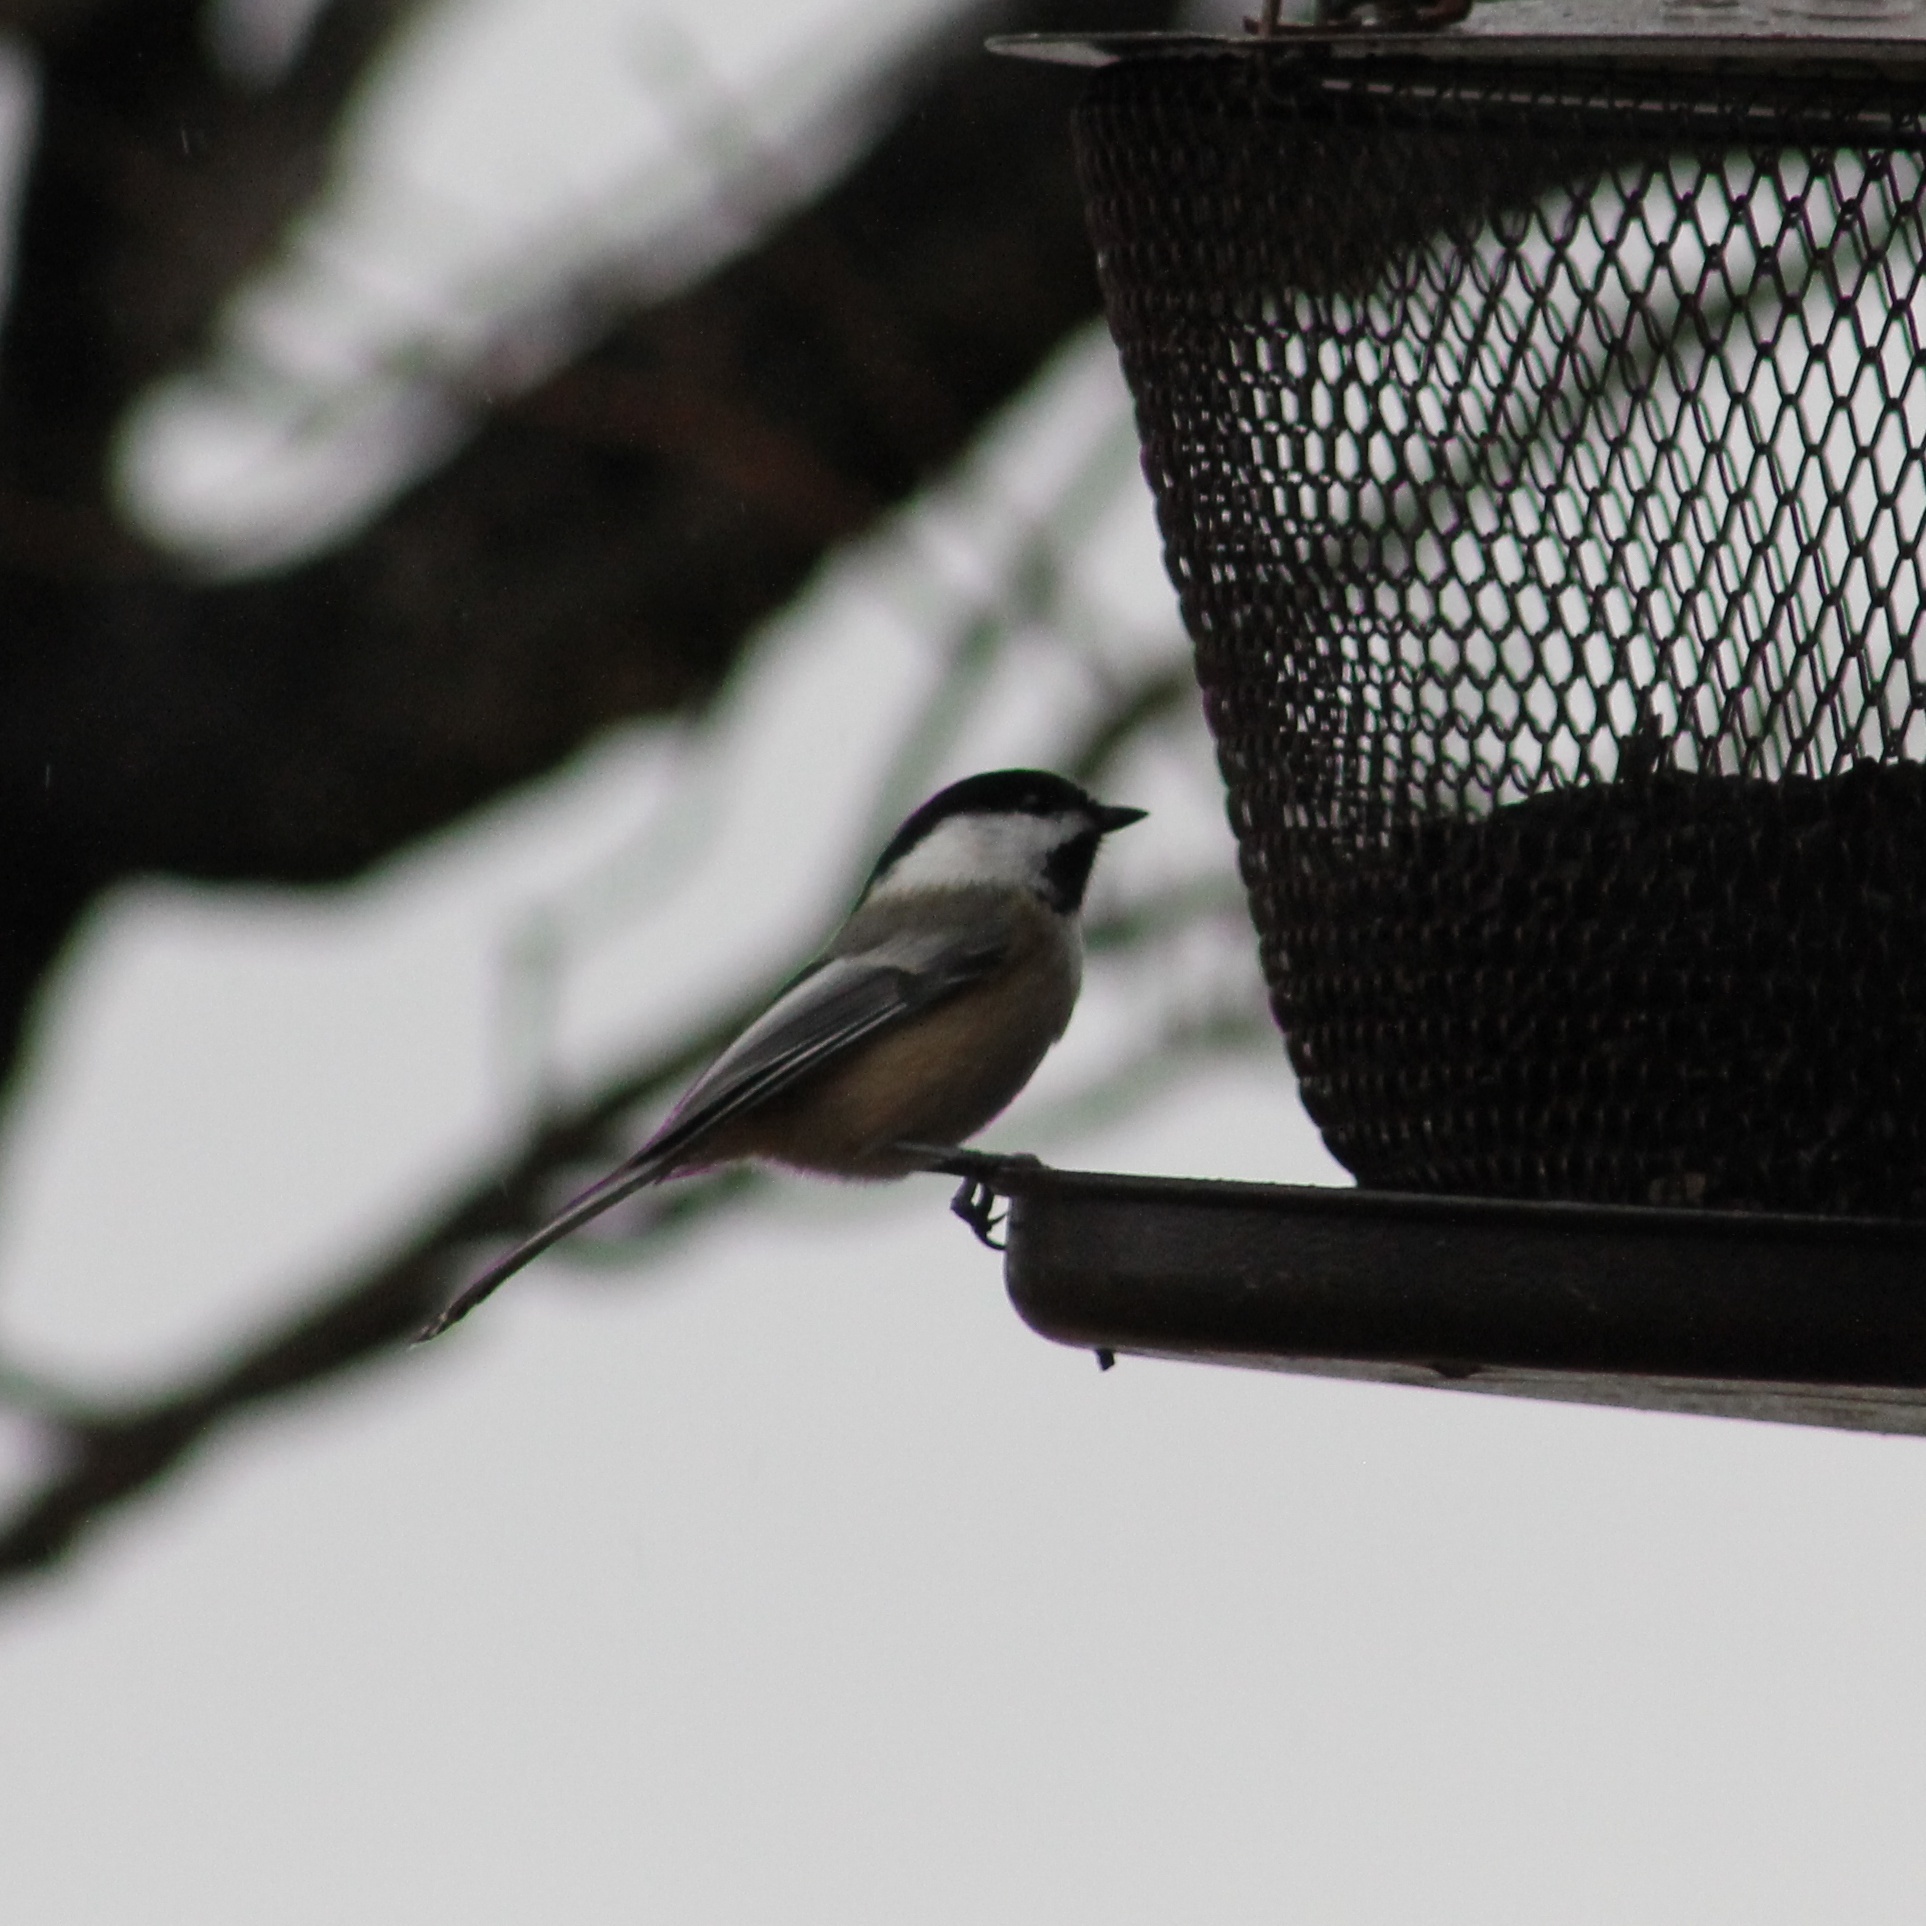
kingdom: Animalia
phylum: Chordata
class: Aves
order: Passeriformes
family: Paridae
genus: Poecile
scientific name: Poecile atricapillus
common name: Black-capped chickadee
